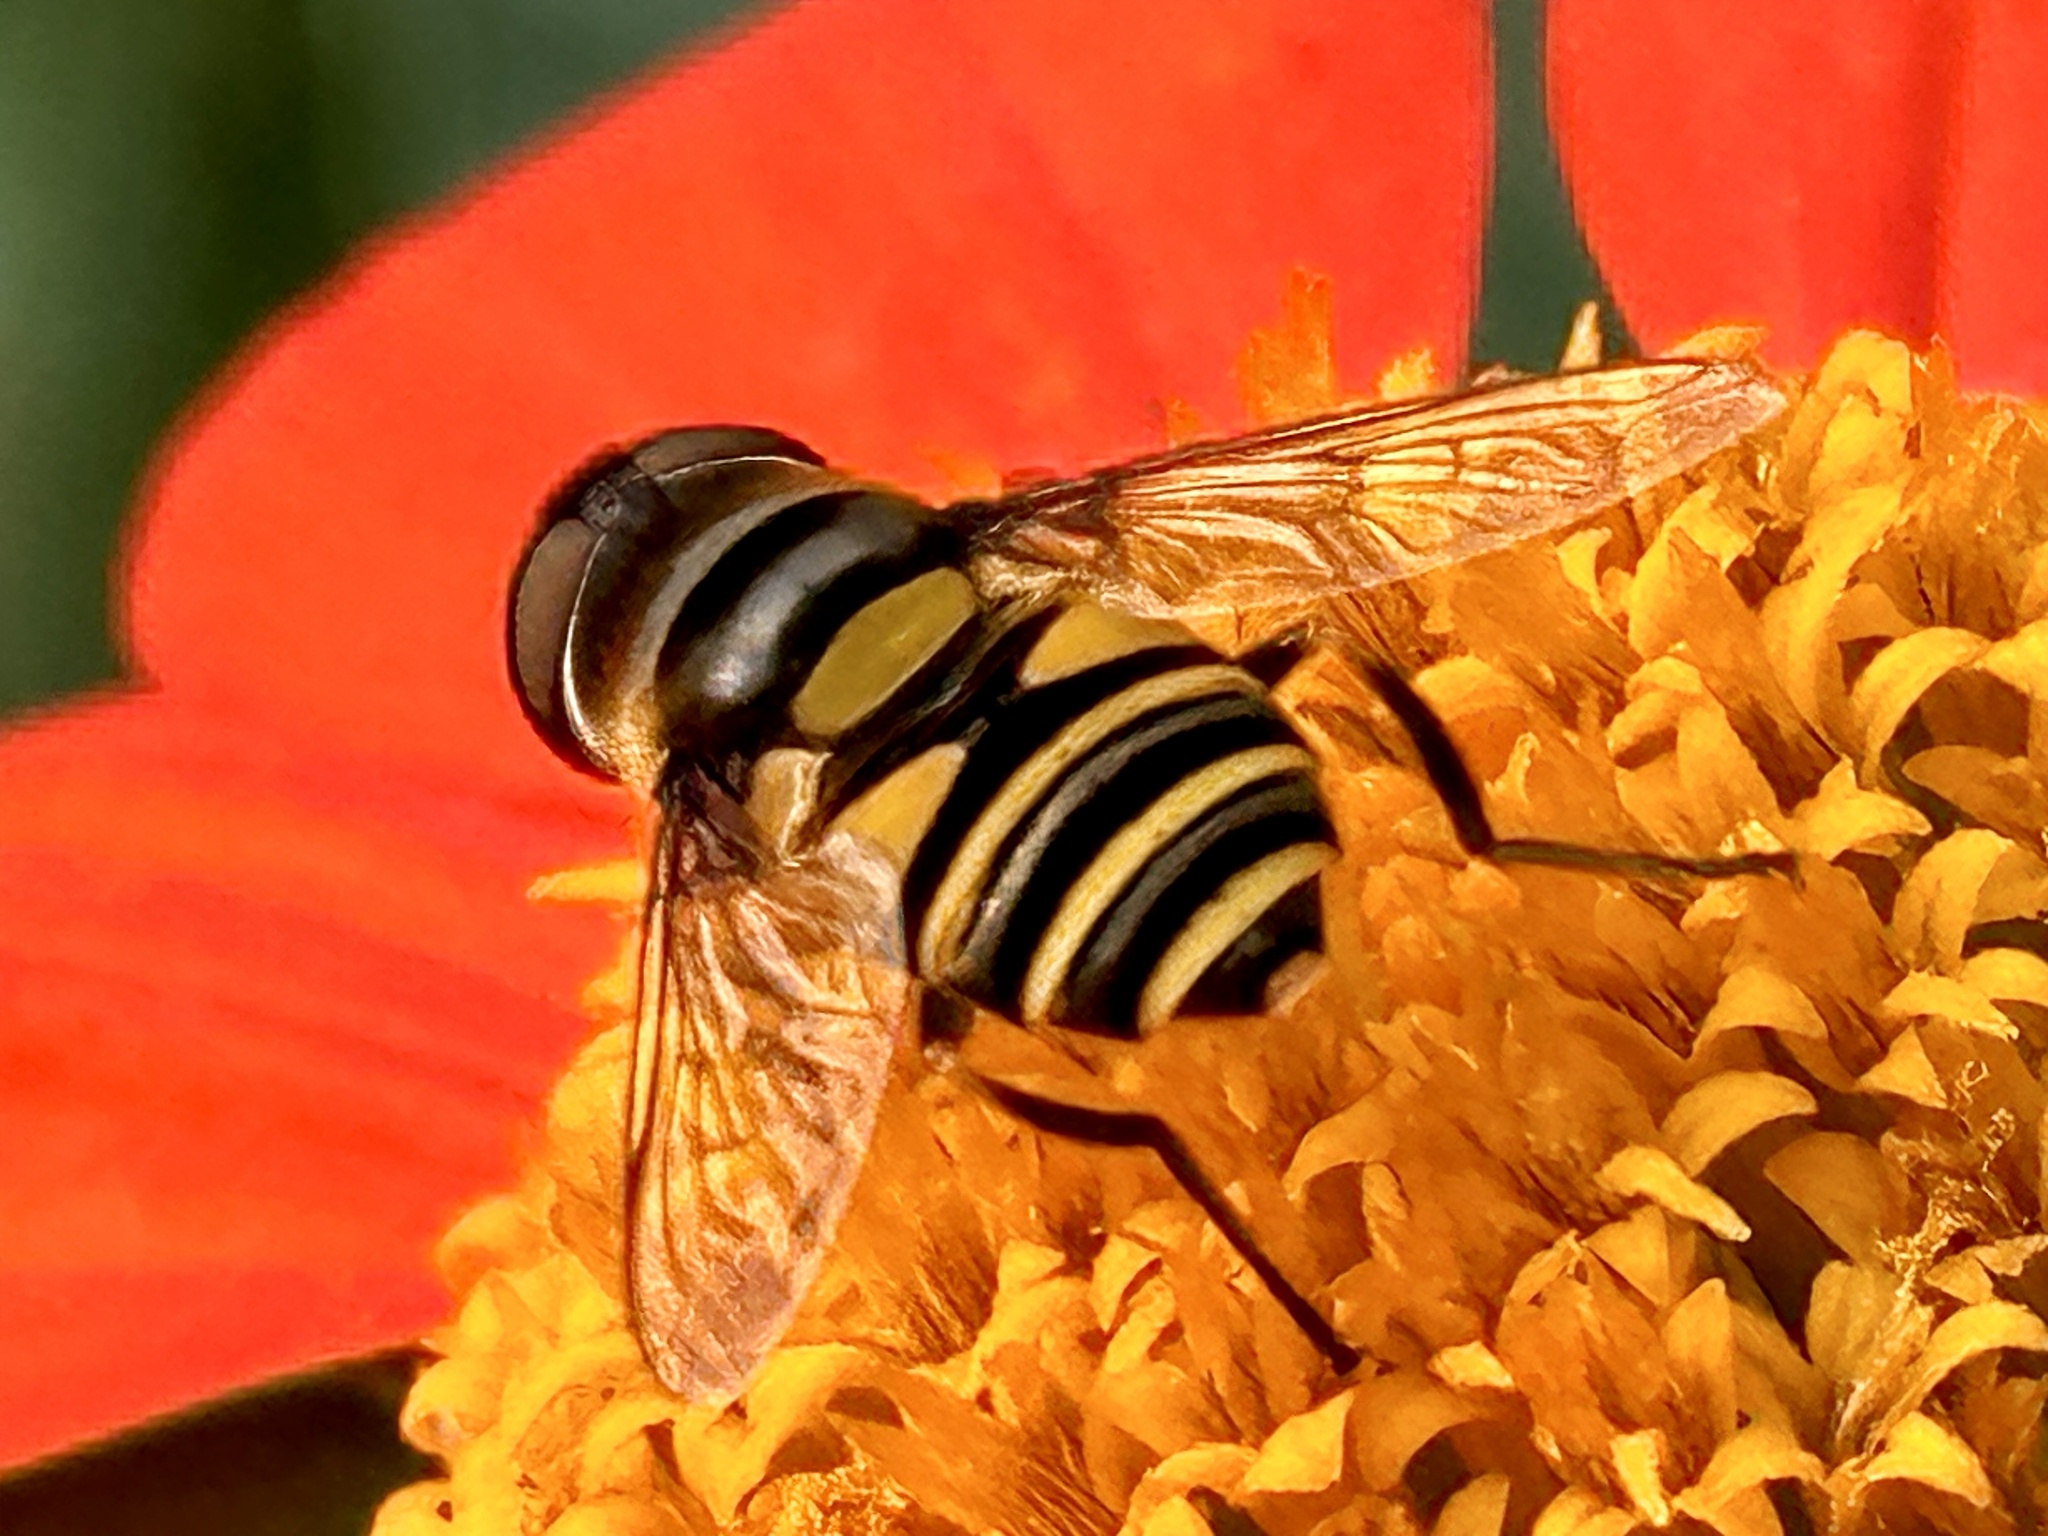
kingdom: Animalia
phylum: Arthropoda
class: Insecta
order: Diptera
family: Syrphidae
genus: Eristalis
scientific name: Eristalis transversa
